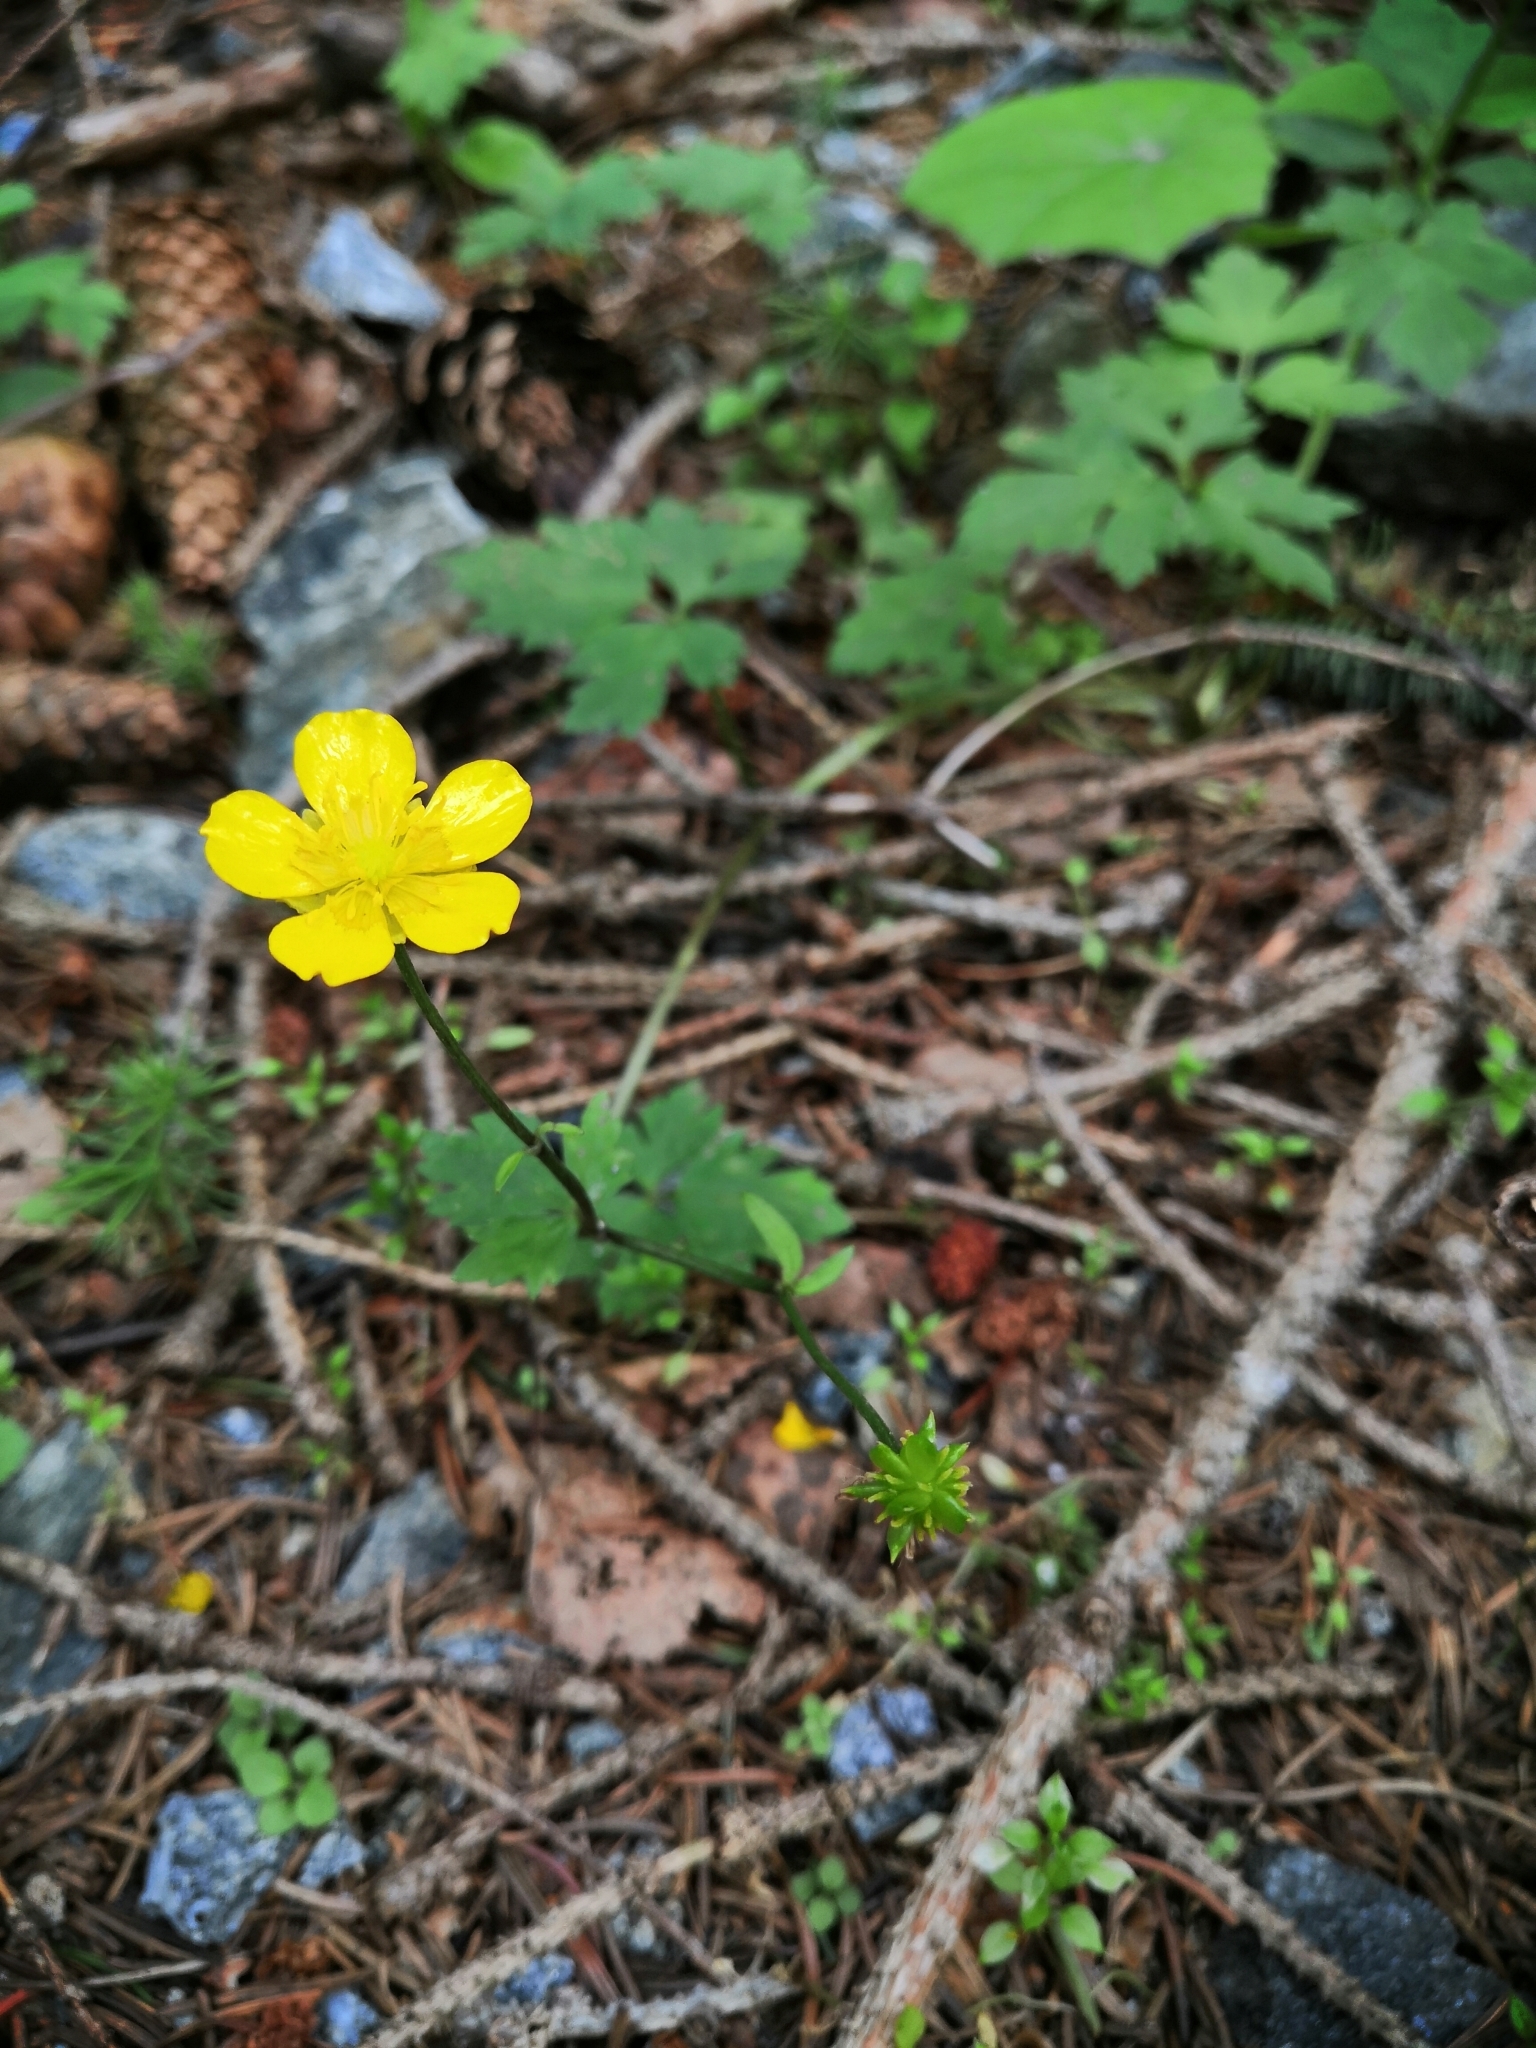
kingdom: Plantae
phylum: Tracheophyta
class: Magnoliopsida
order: Ranunculales
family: Ranunculaceae
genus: Ranunculus
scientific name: Ranunculus repens
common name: Creeping buttercup
